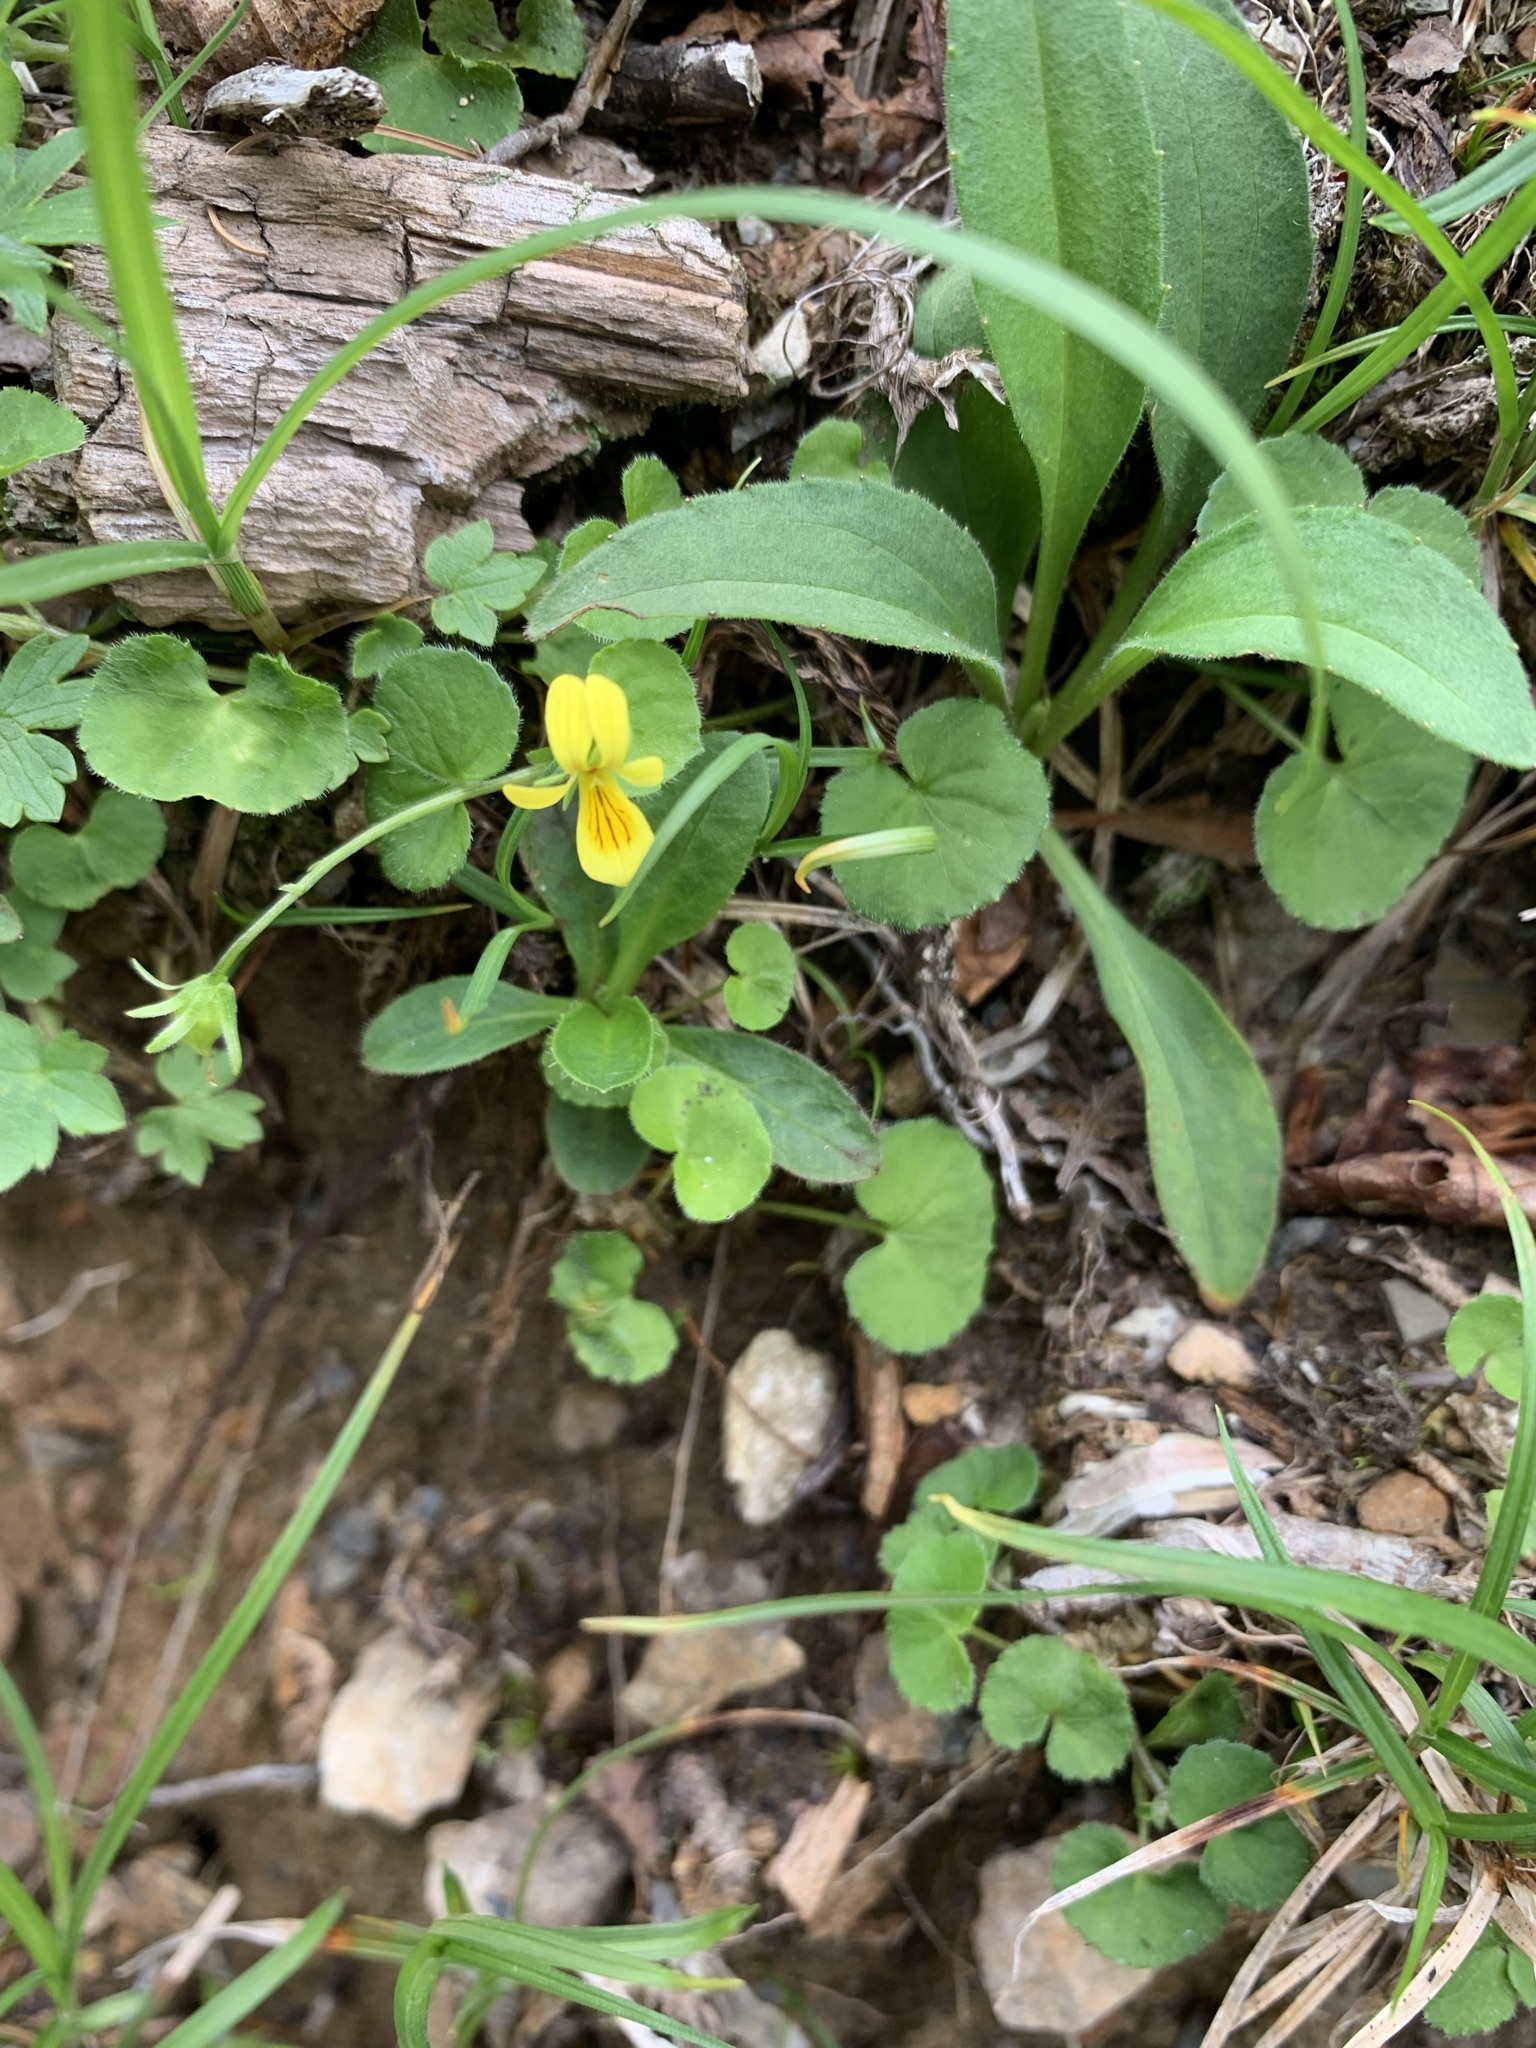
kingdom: Plantae
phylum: Tracheophyta
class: Magnoliopsida
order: Malpighiales
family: Violaceae
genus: Viola
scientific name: Viola biflora
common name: Alpine yellow violet
